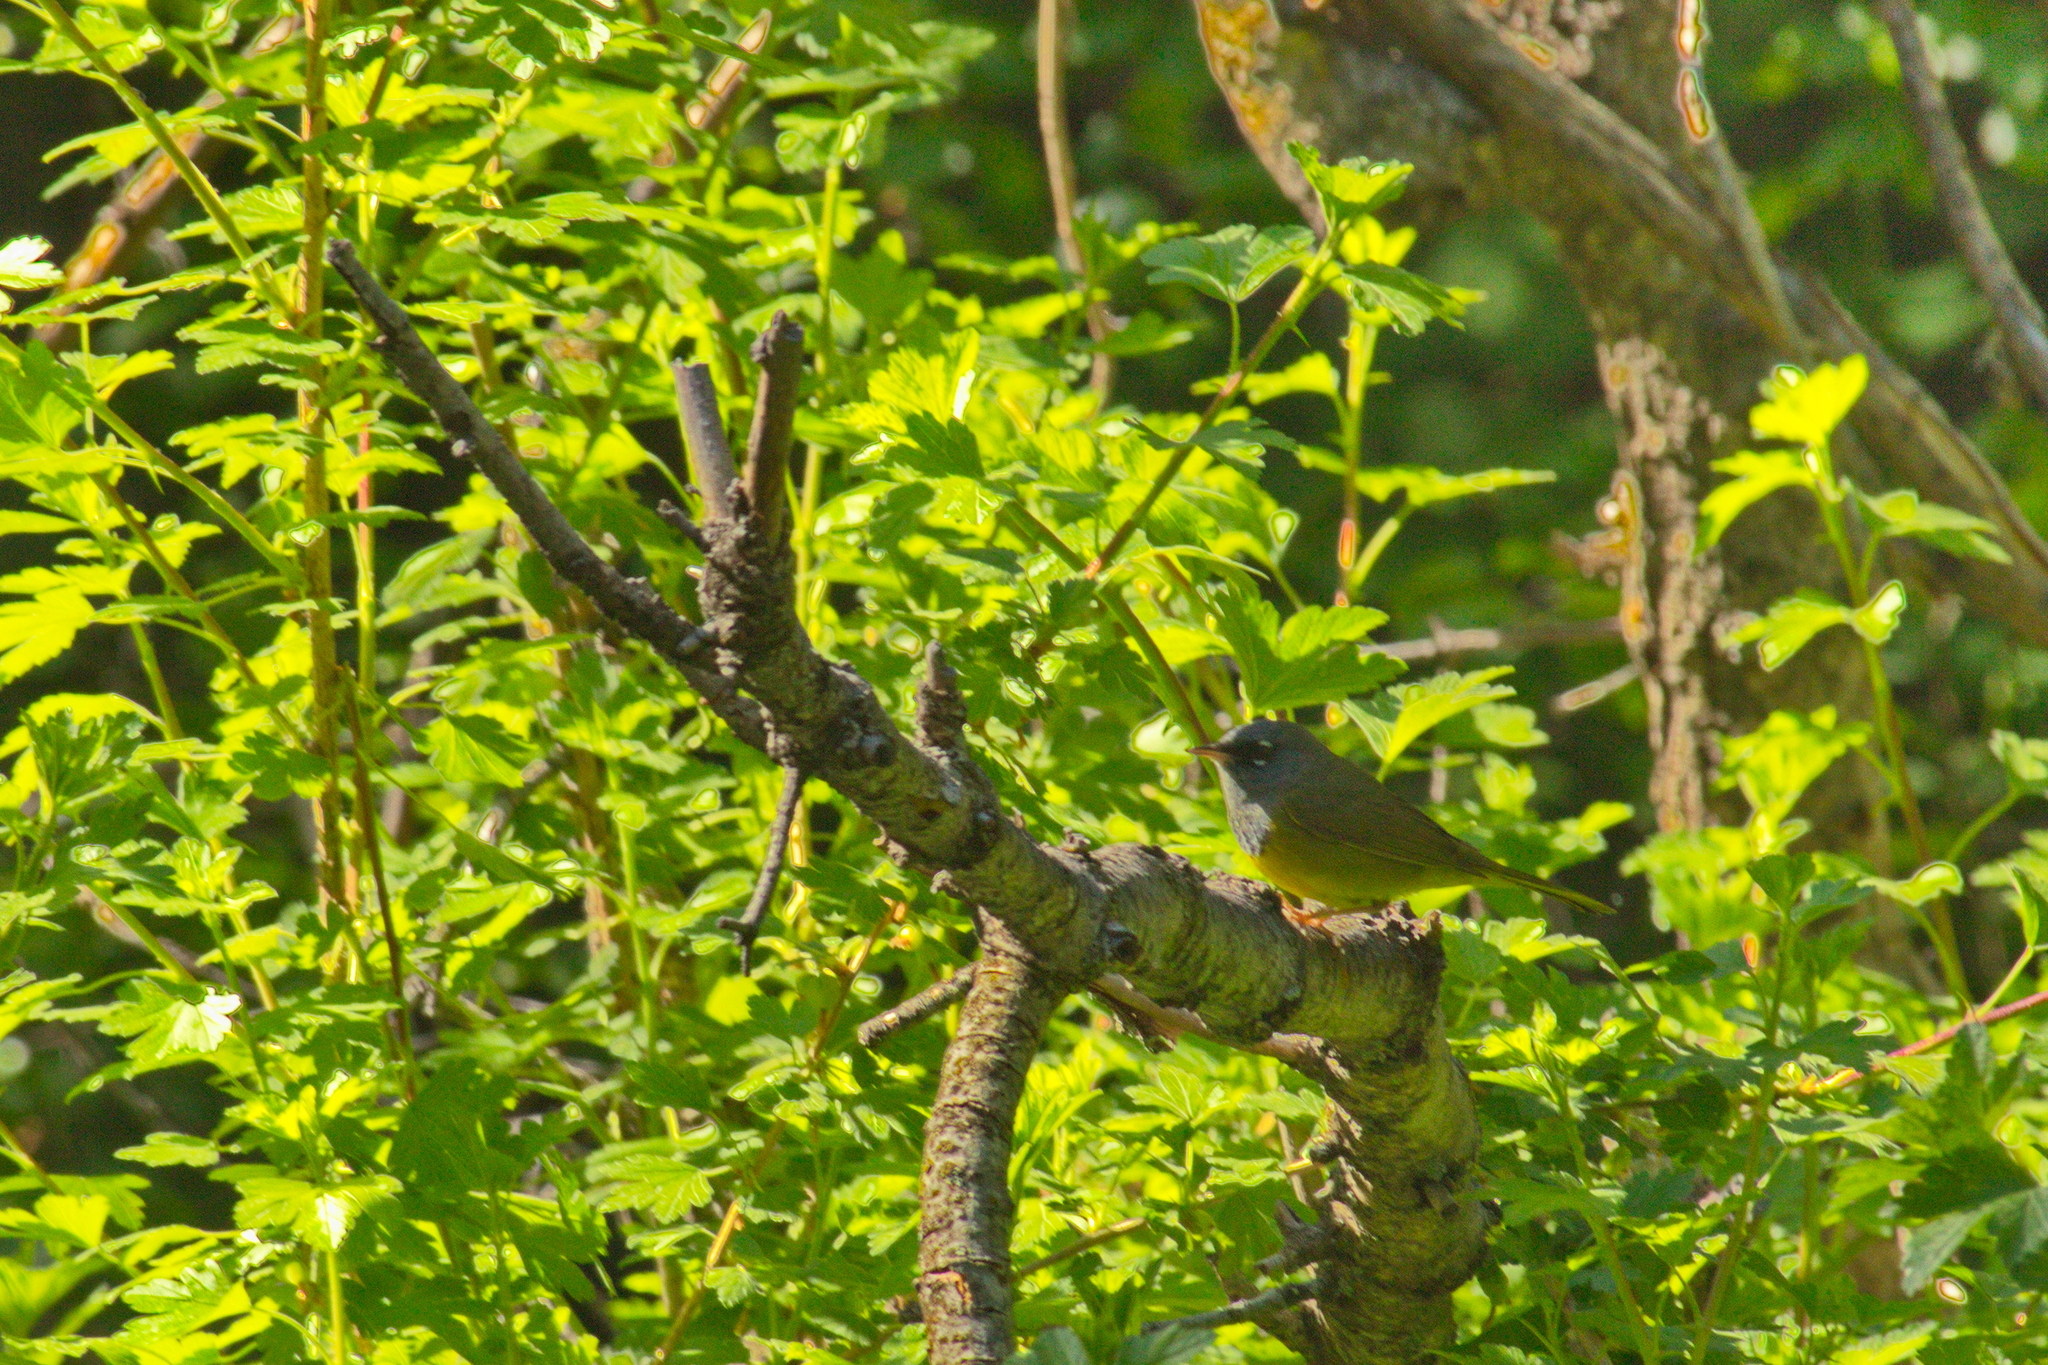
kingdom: Animalia
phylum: Chordata
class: Aves
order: Passeriformes
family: Parulidae
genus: Geothlypis
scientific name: Geothlypis tolmiei
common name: Macgillivray's warbler
